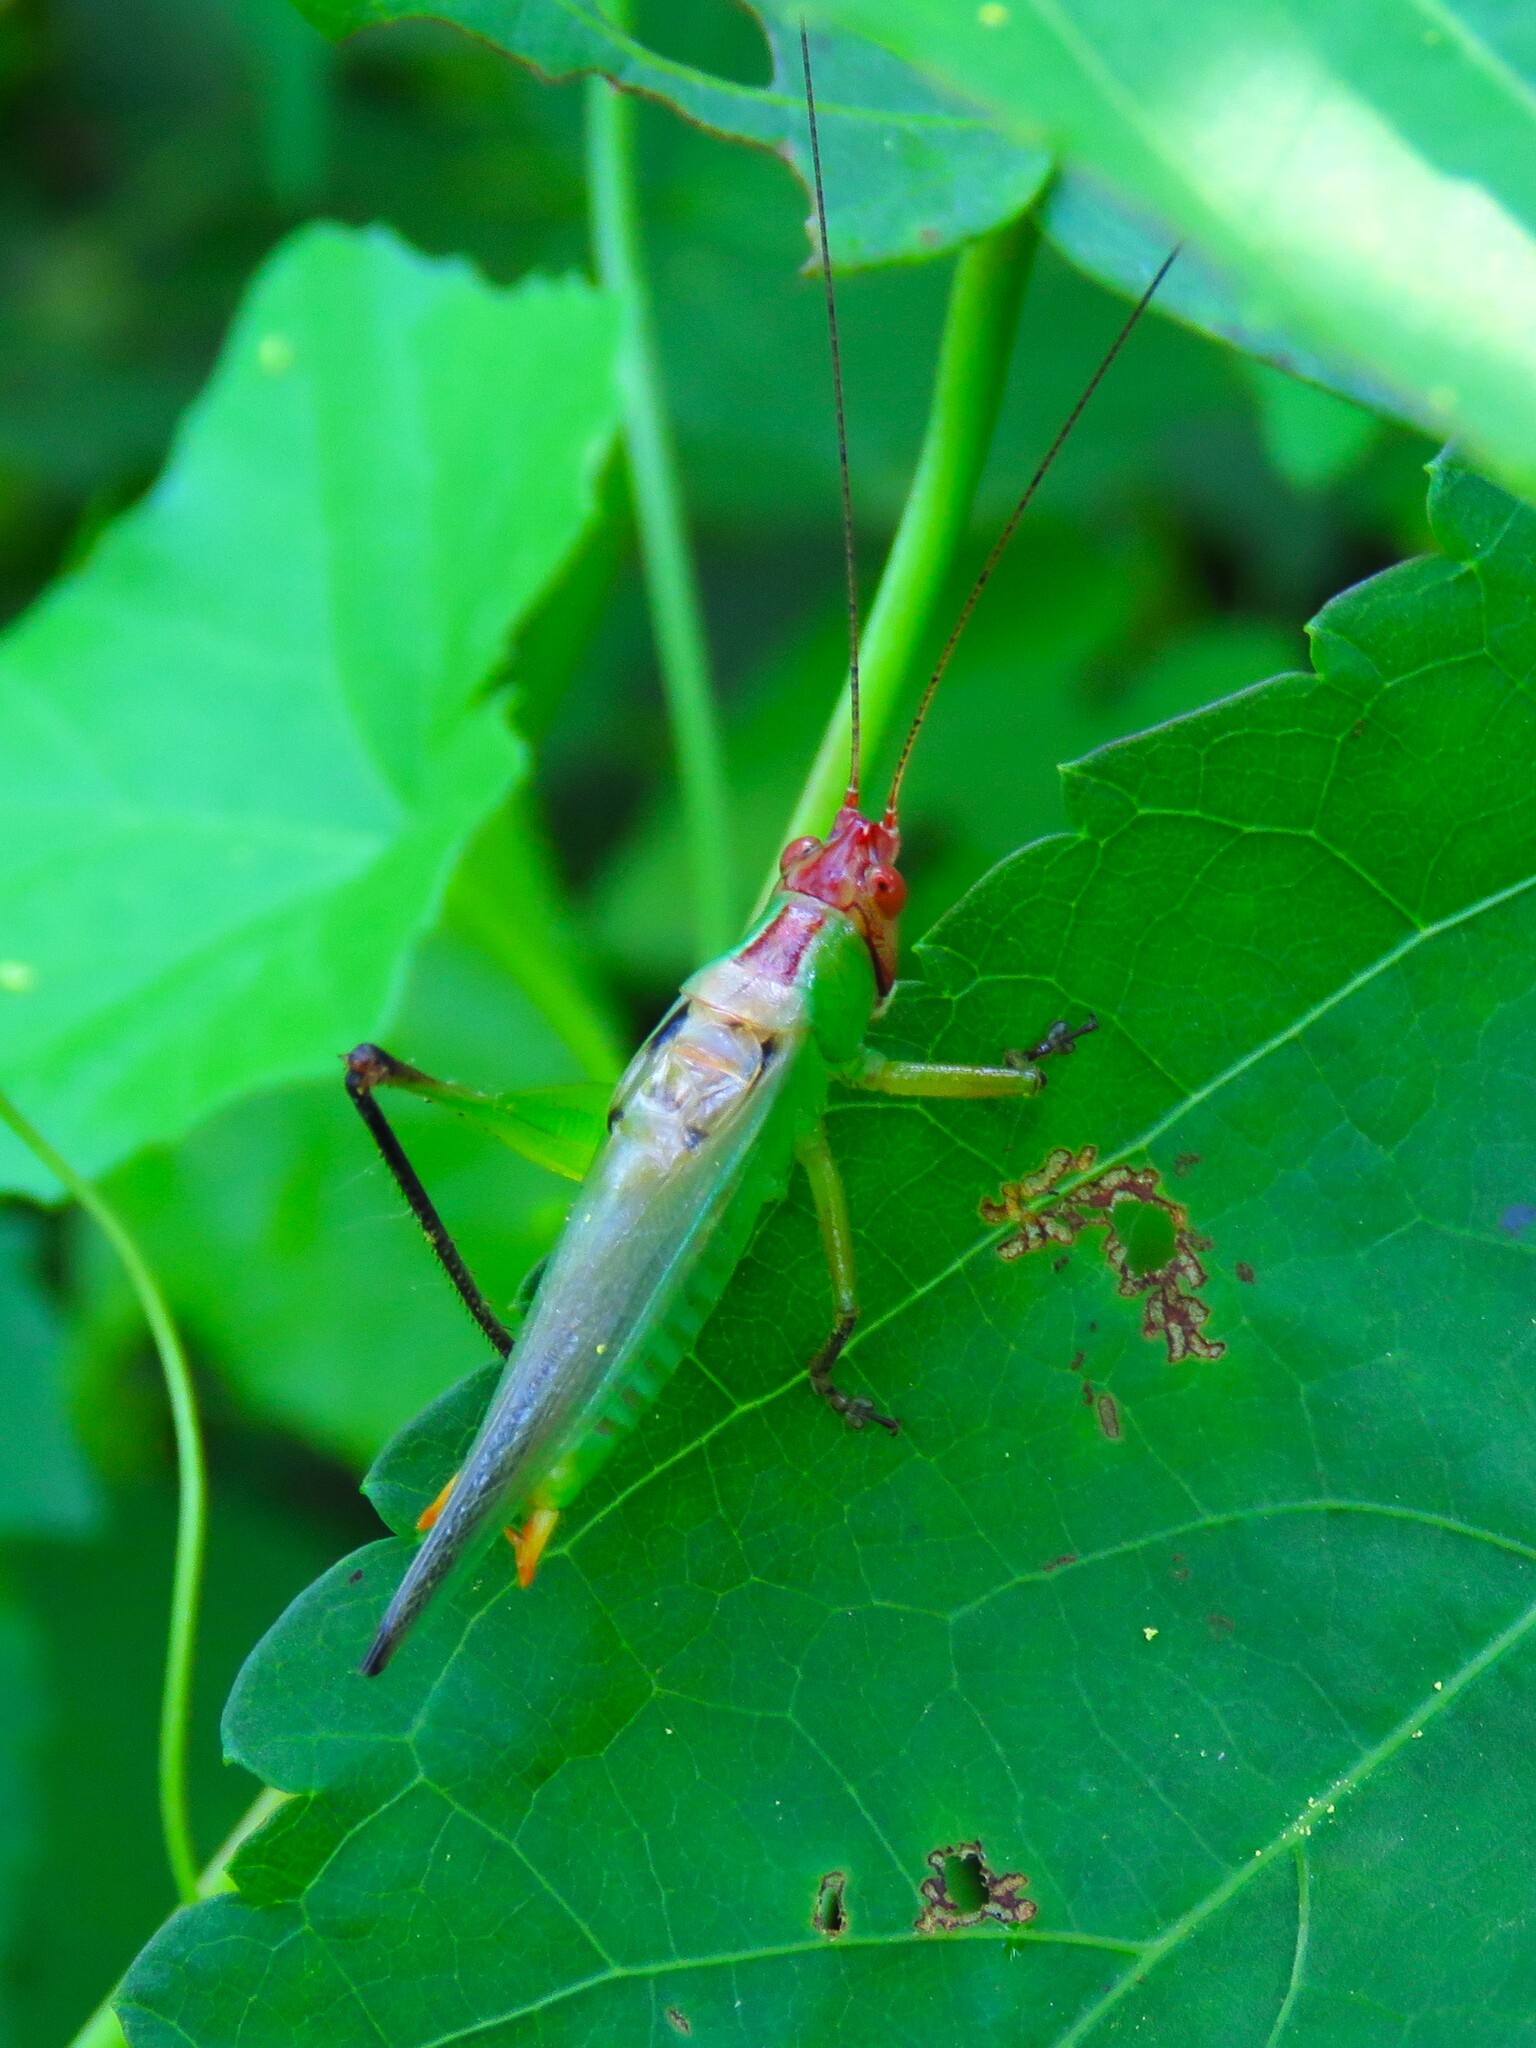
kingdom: Animalia
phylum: Arthropoda
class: Insecta
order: Orthoptera
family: Tettigoniidae
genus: Orchelimum
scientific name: Orchelimum nigripes
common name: Black-legged meadow katydid
